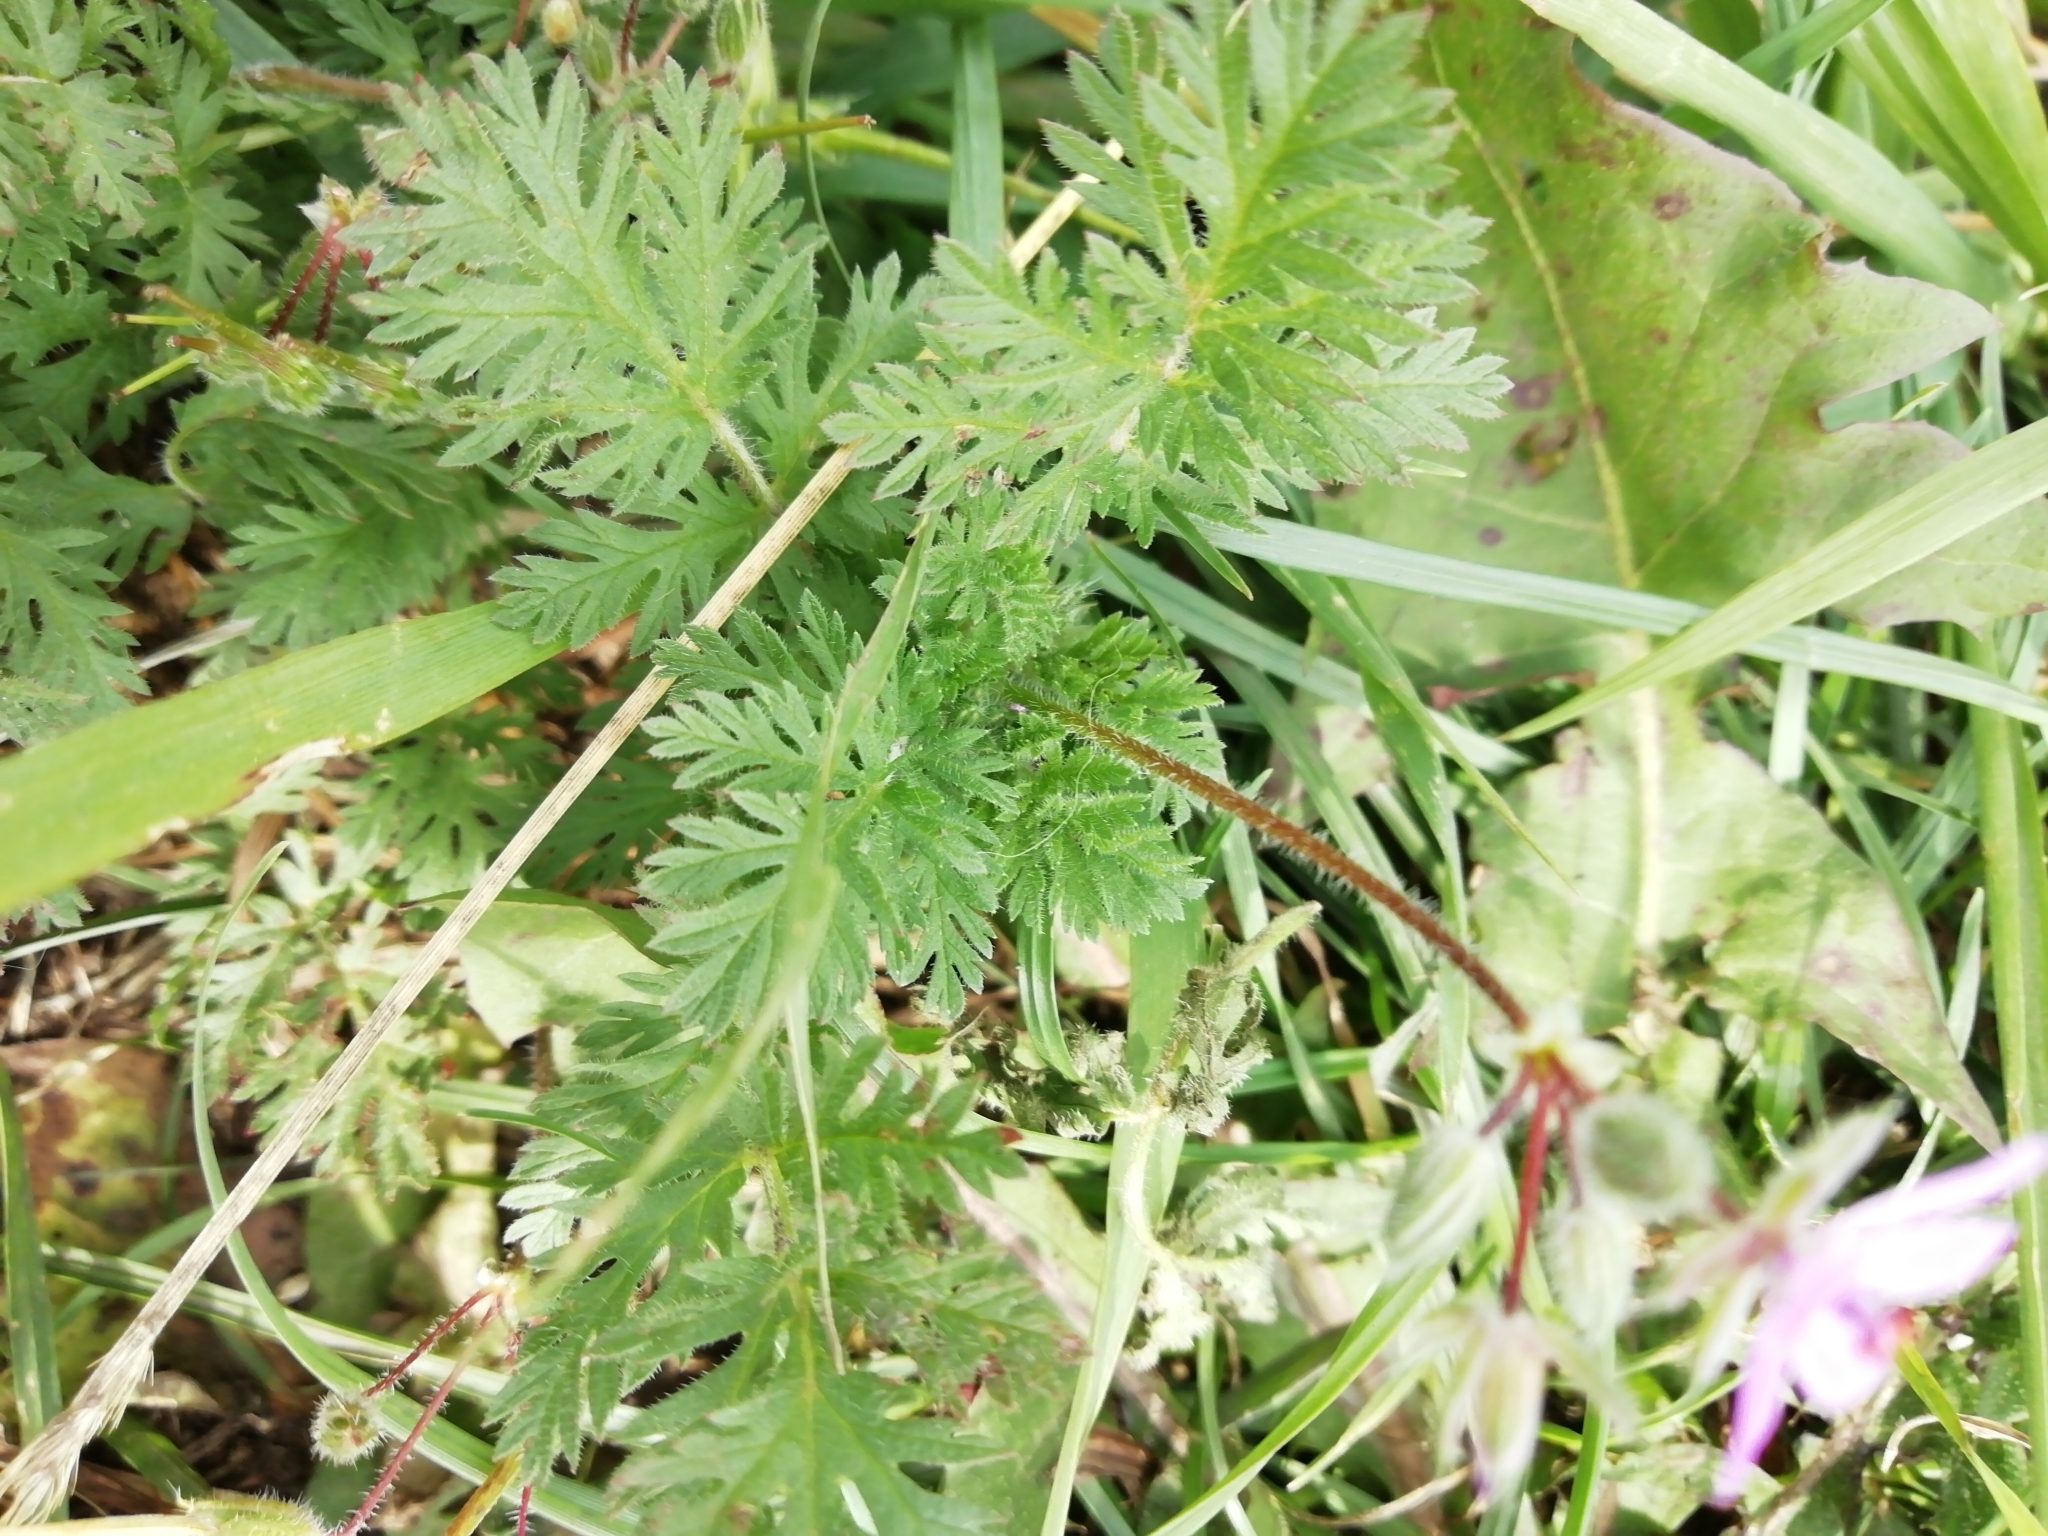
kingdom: Plantae
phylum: Tracheophyta
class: Magnoliopsida
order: Geraniales
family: Geraniaceae
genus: Erodium
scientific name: Erodium cicutarium
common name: Common stork's-bill
